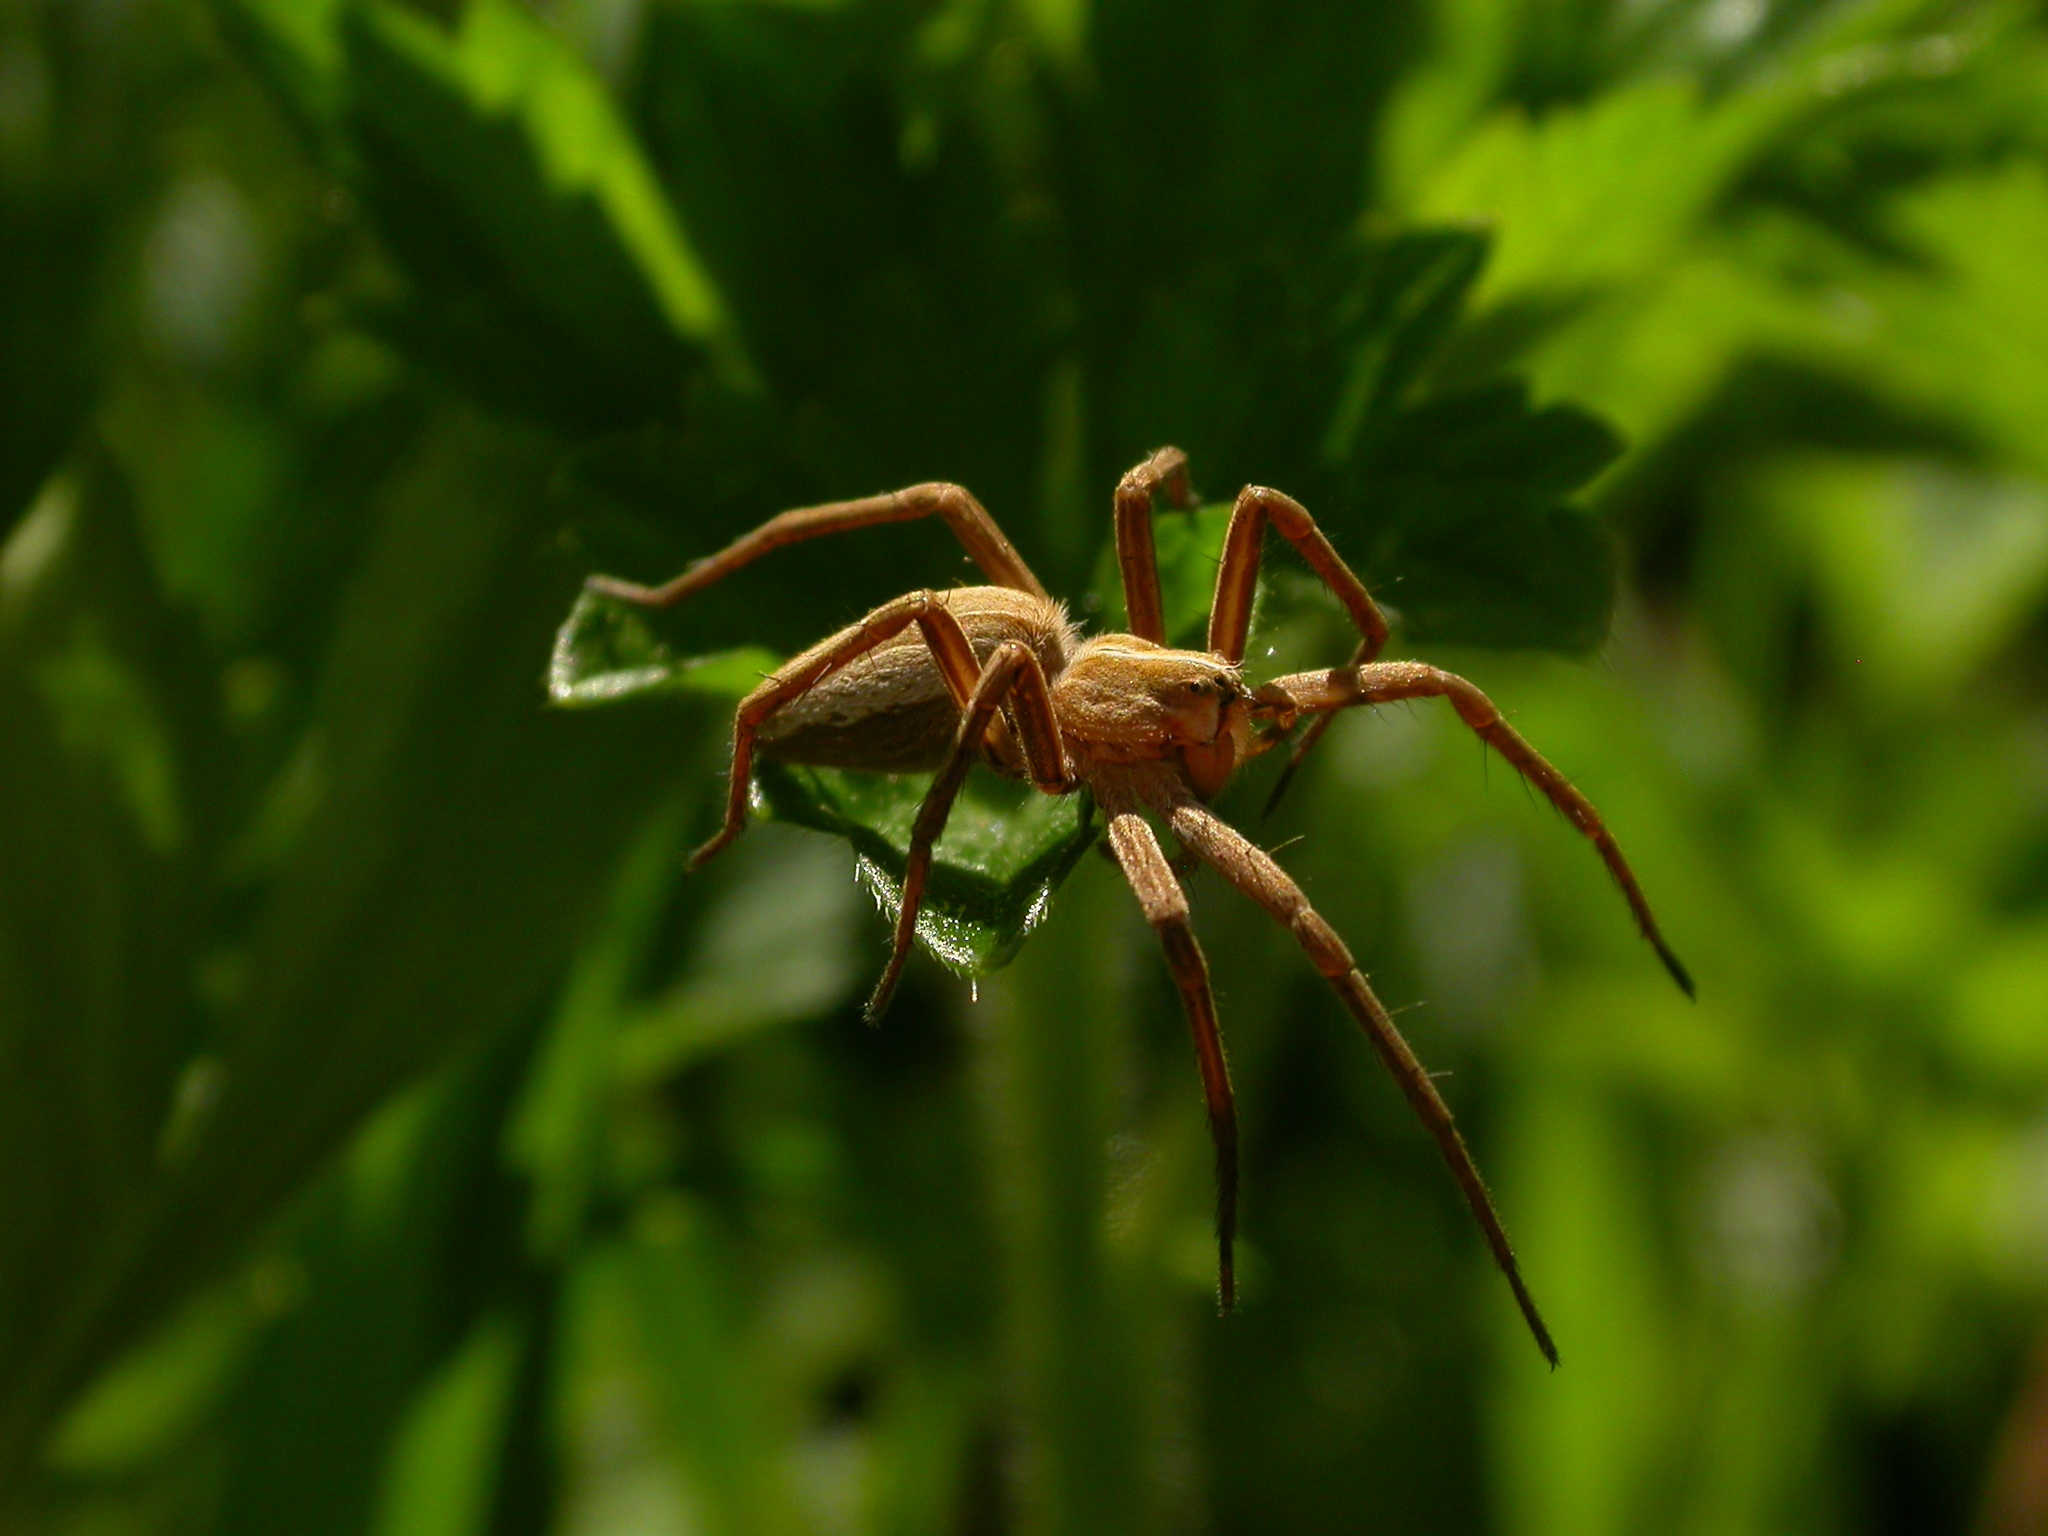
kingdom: Animalia
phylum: Arthropoda
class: Arachnida
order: Araneae
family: Pisauridae
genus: Pisaura
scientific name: Pisaura mirabilis
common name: Tent spider
